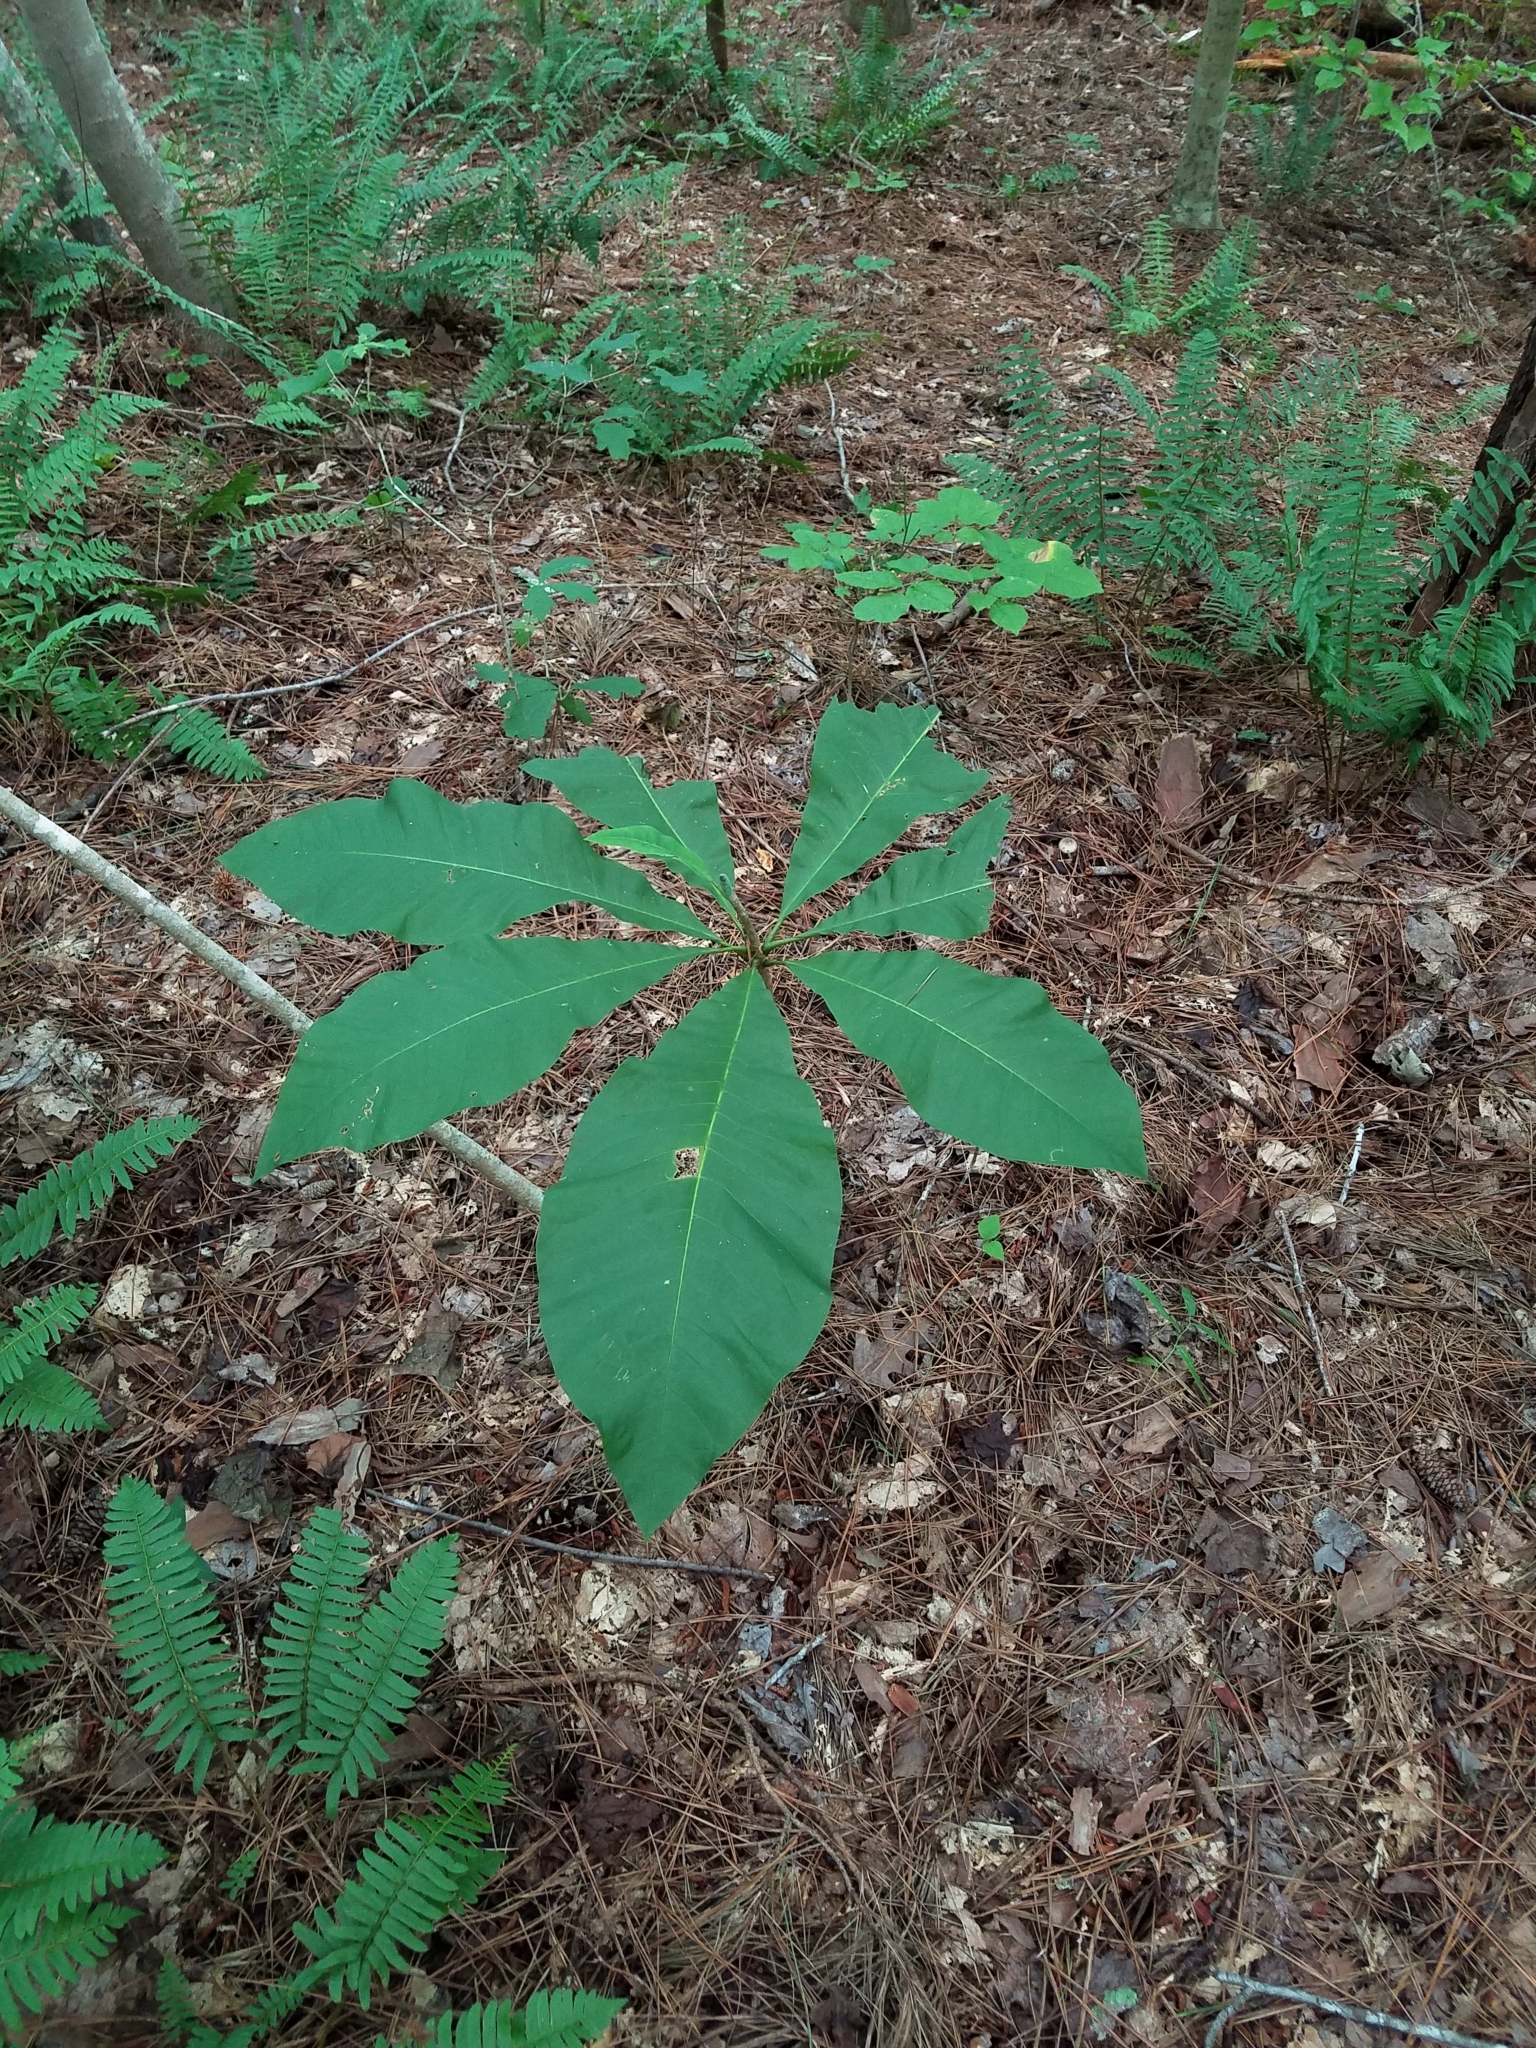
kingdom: Plantae
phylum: Tracheophyta
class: Magnoliopsida
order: Magnoliales
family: Magnoliaceae
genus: Magnolia
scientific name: Magnolia tripetala
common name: Umbrella magnolia
